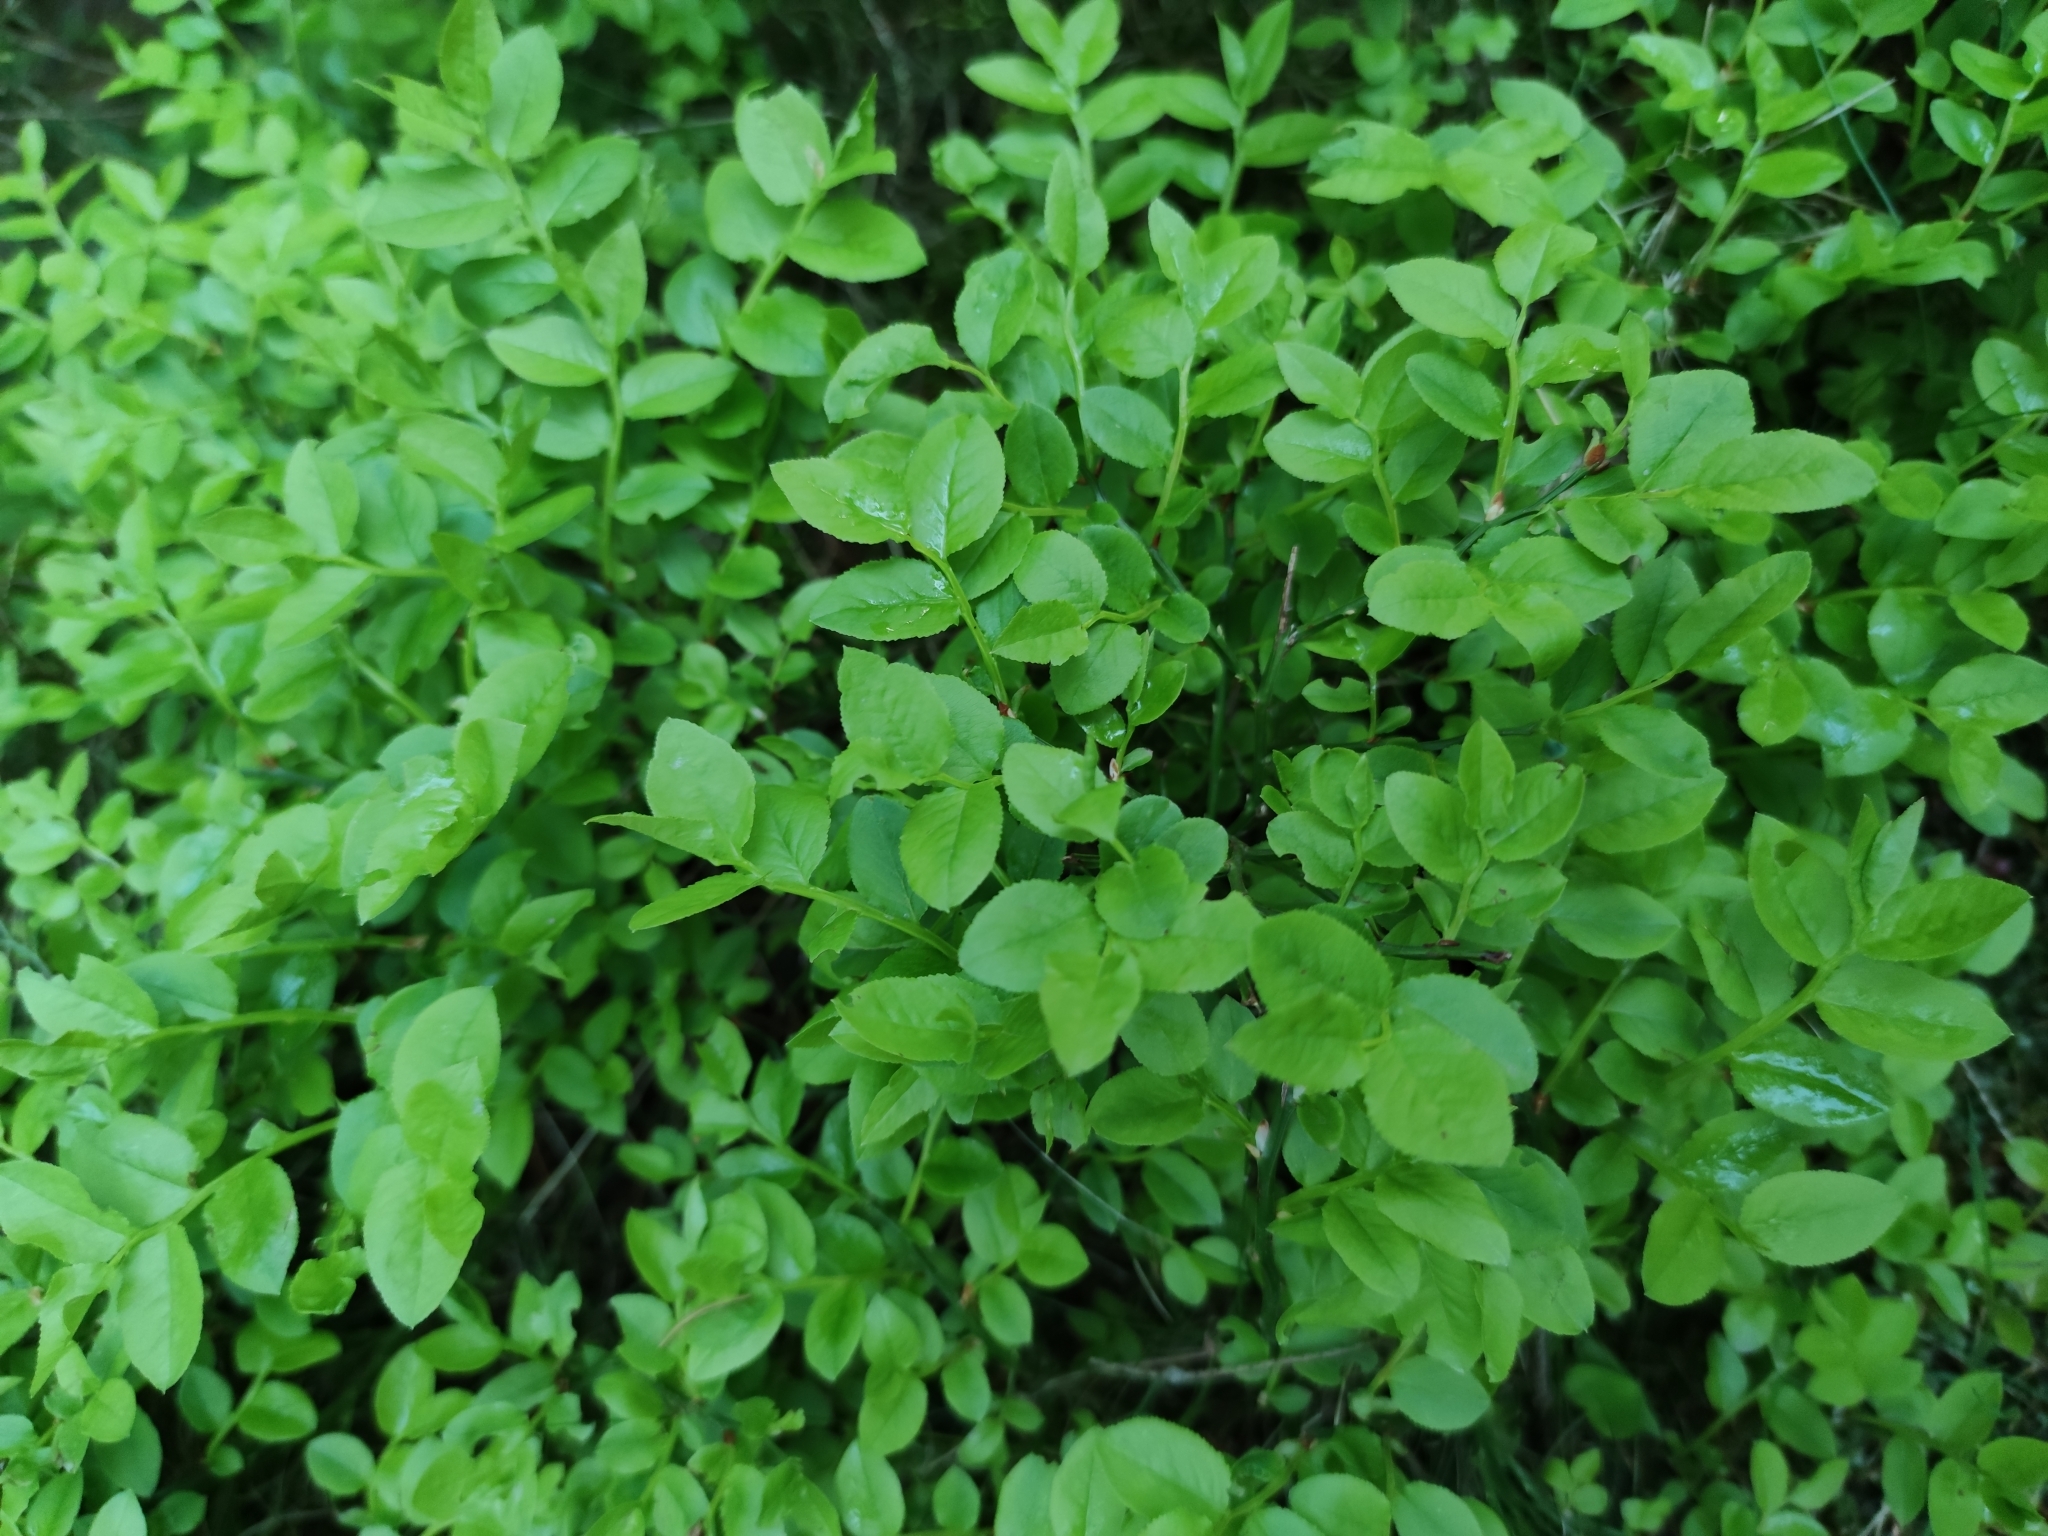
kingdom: Plantae
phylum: Tracheophyta
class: Magnoliopsida
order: Ericales
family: Ericaceae
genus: Vaccinium
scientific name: Vaccinium myrtillus
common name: Bilberry
